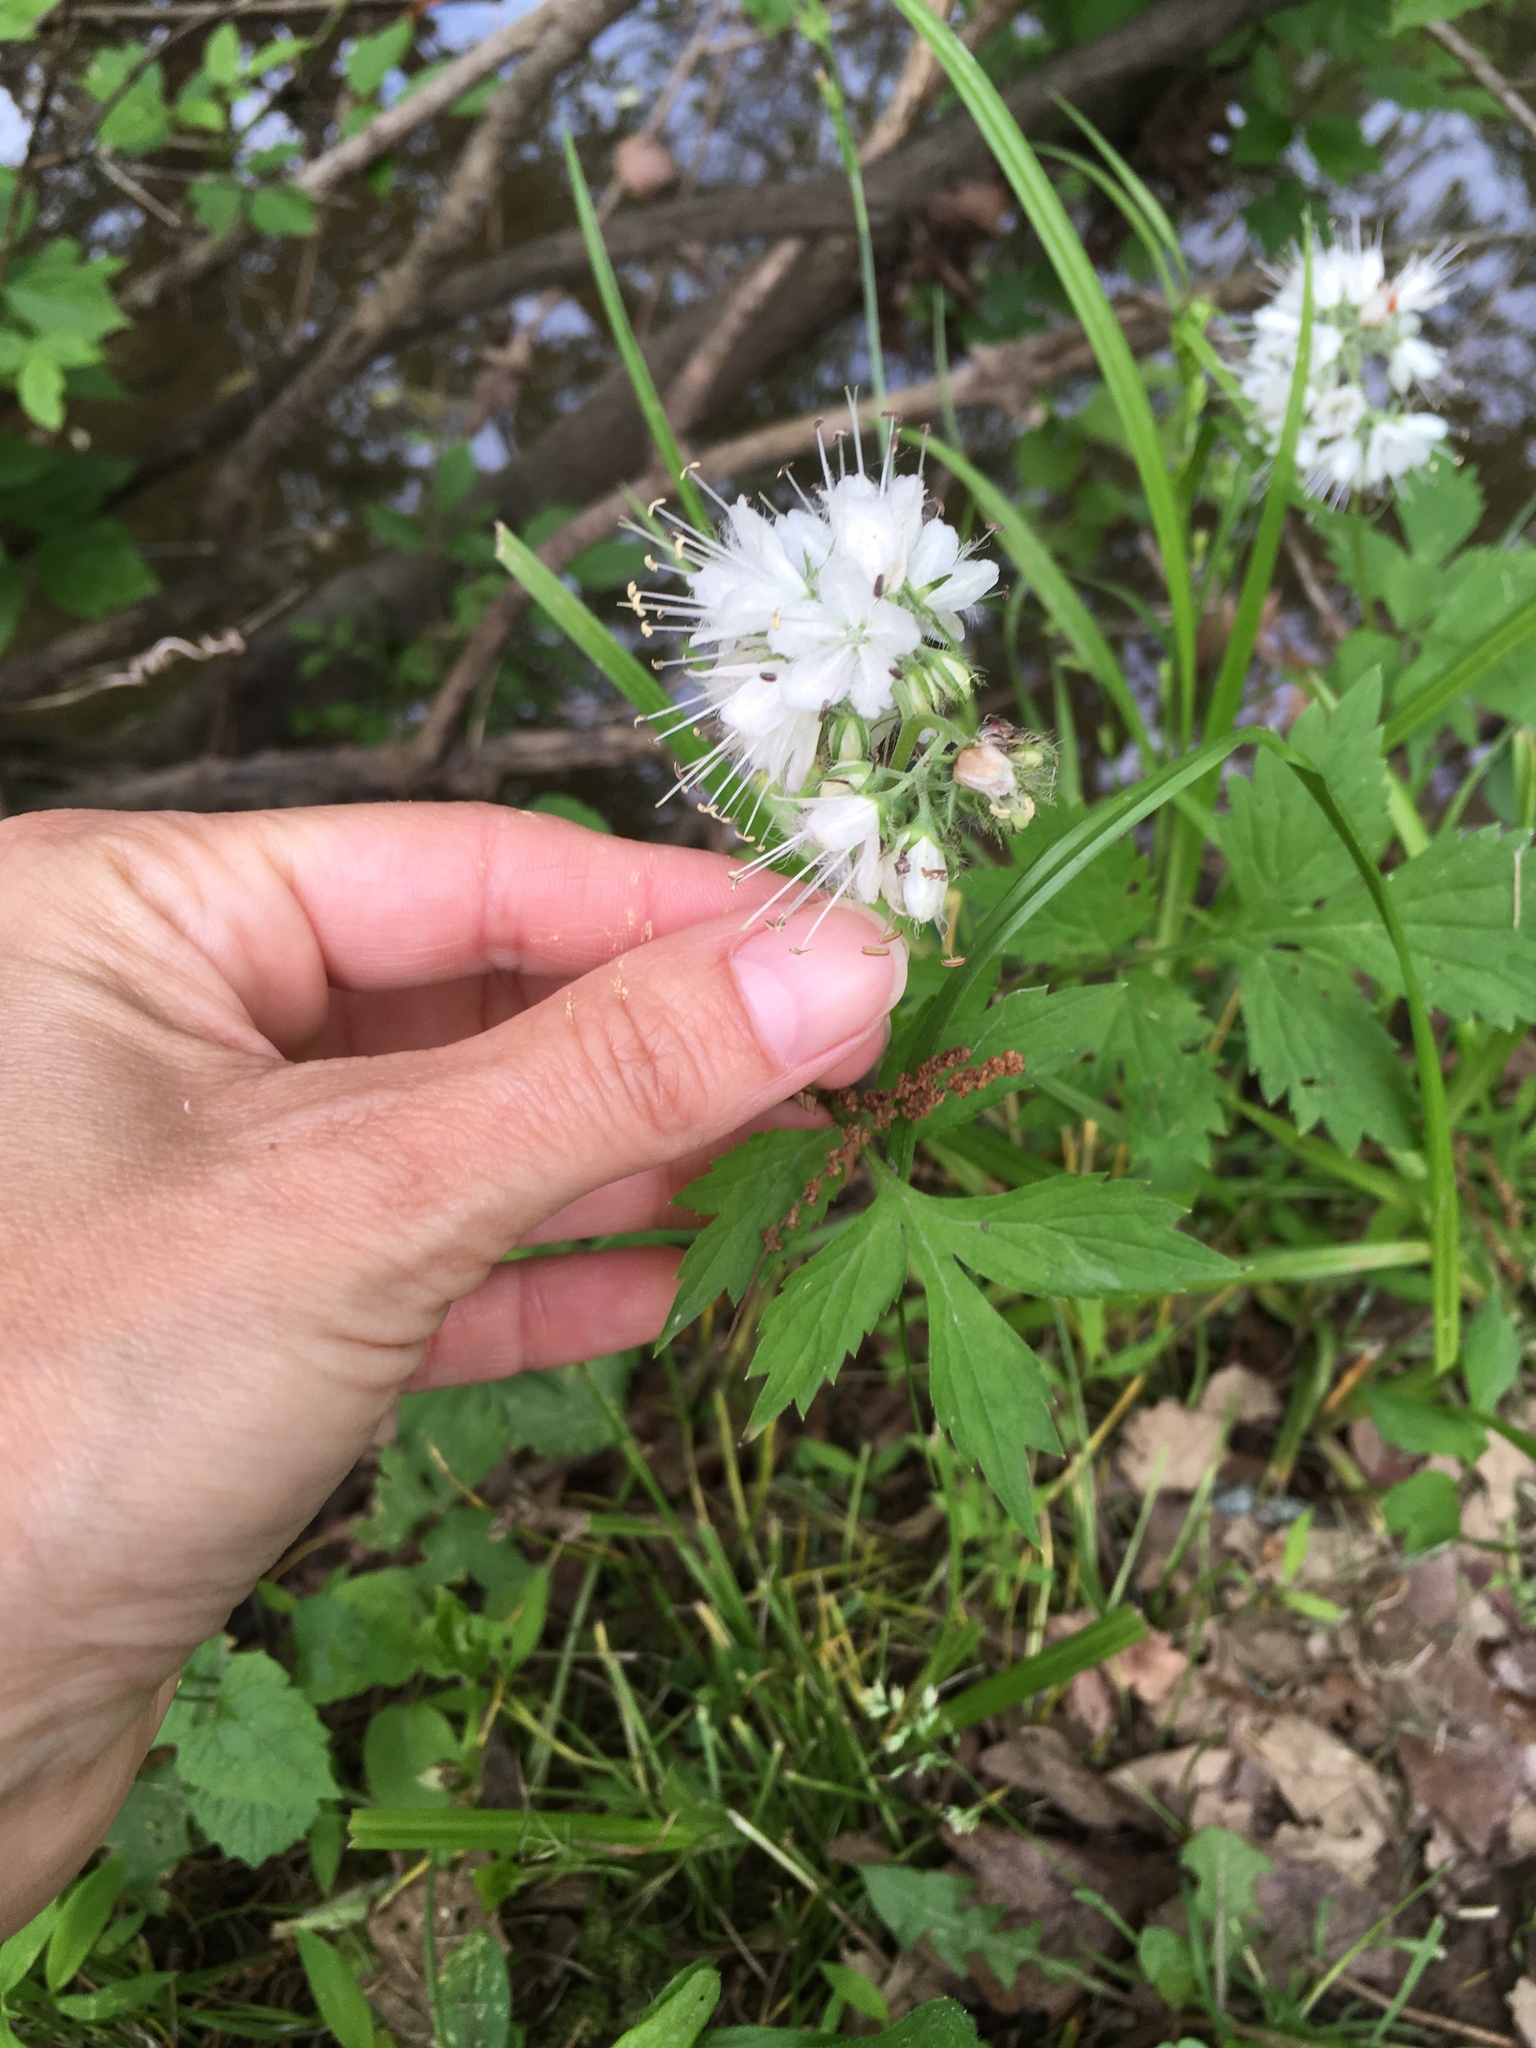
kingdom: Plantae
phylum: Tracheophyta
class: Magnoliopsida
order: Boraginales
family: Hydrophyllaceae
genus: Hydrophyllum
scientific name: Hydrophyllum virginianum
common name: Virginia waterleaf
